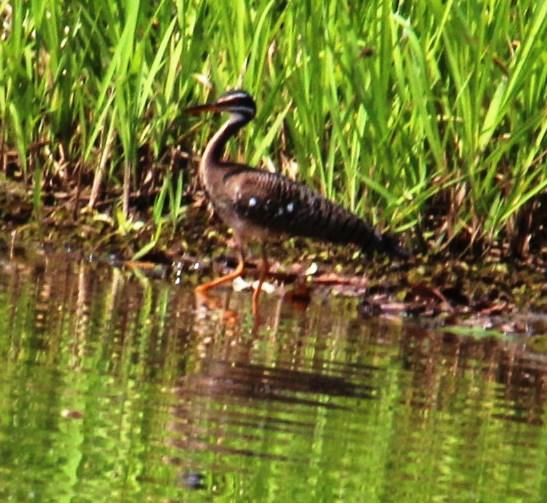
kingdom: Animalia
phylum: Chordata
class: Aves
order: Eurypygiformes
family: Eurypygidae
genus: Eurypyga
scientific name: Eurypyga helias
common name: Sunbittern
